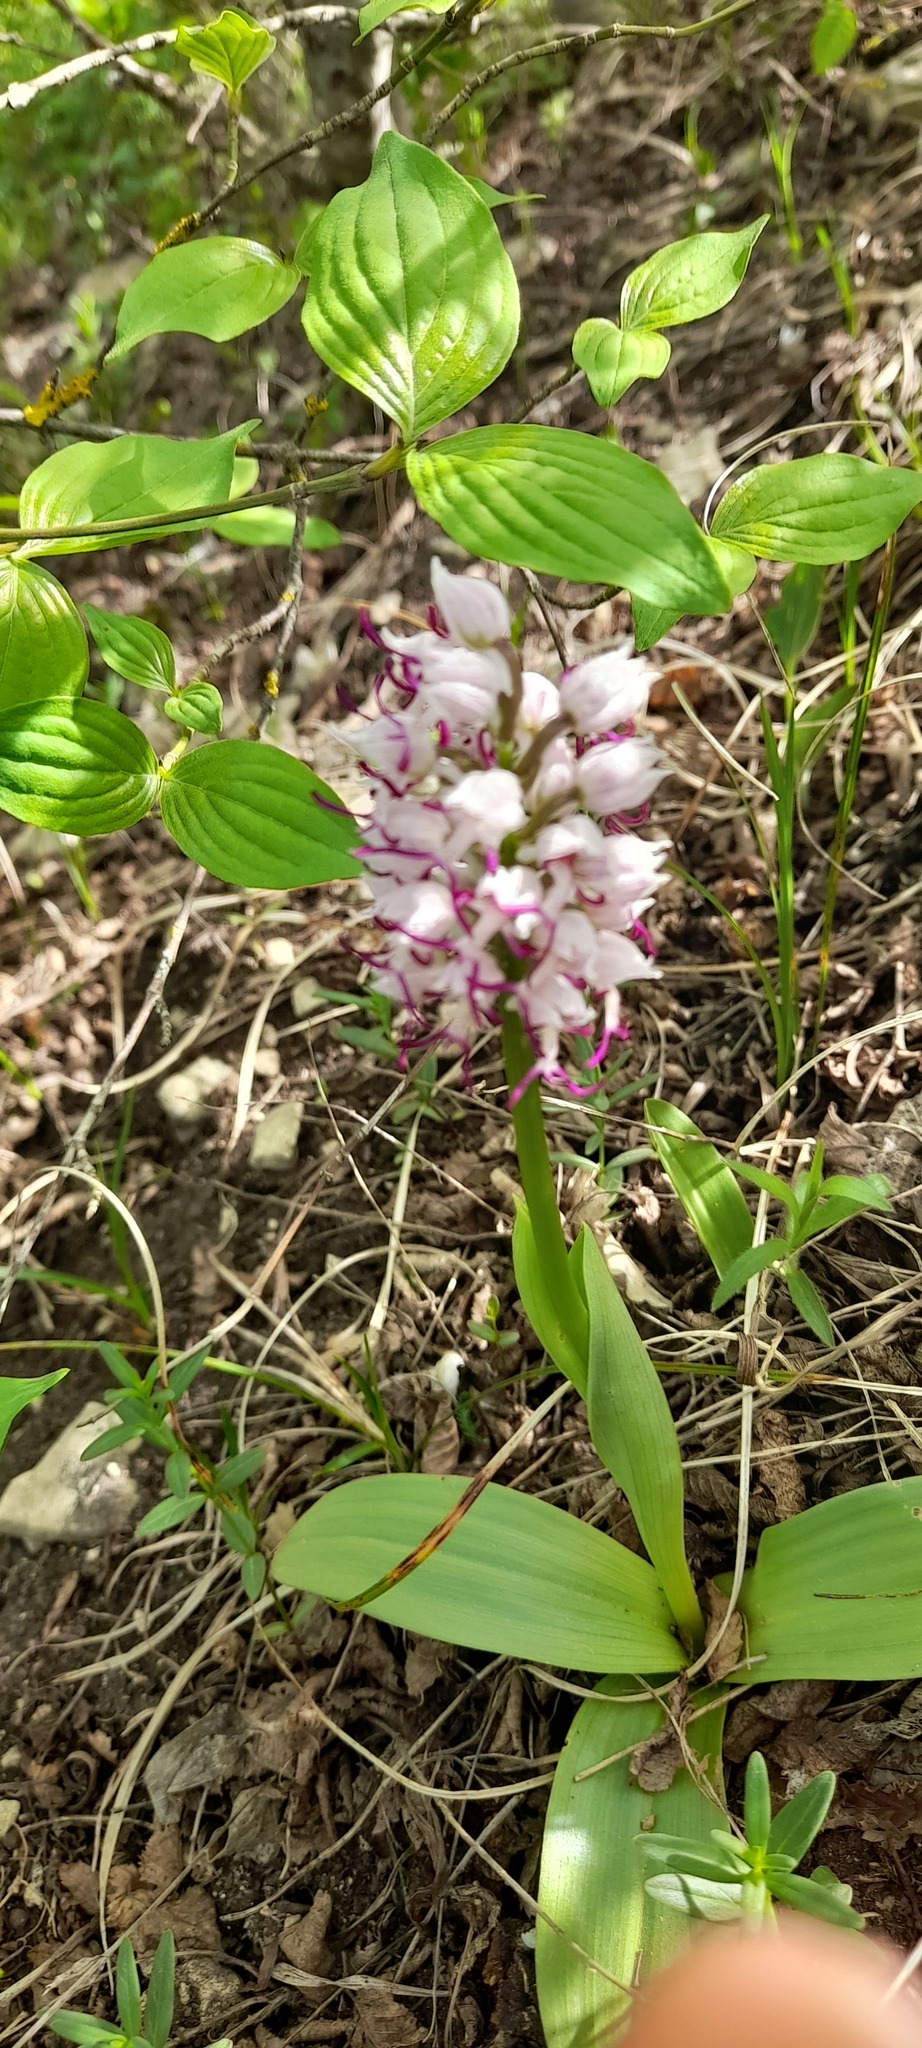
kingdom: Plantae
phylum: Tracheophyta
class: Liliopsida
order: Asparagales
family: Orchidaceae
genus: Orchis
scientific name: Orchis simia
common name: Monkey orchid
